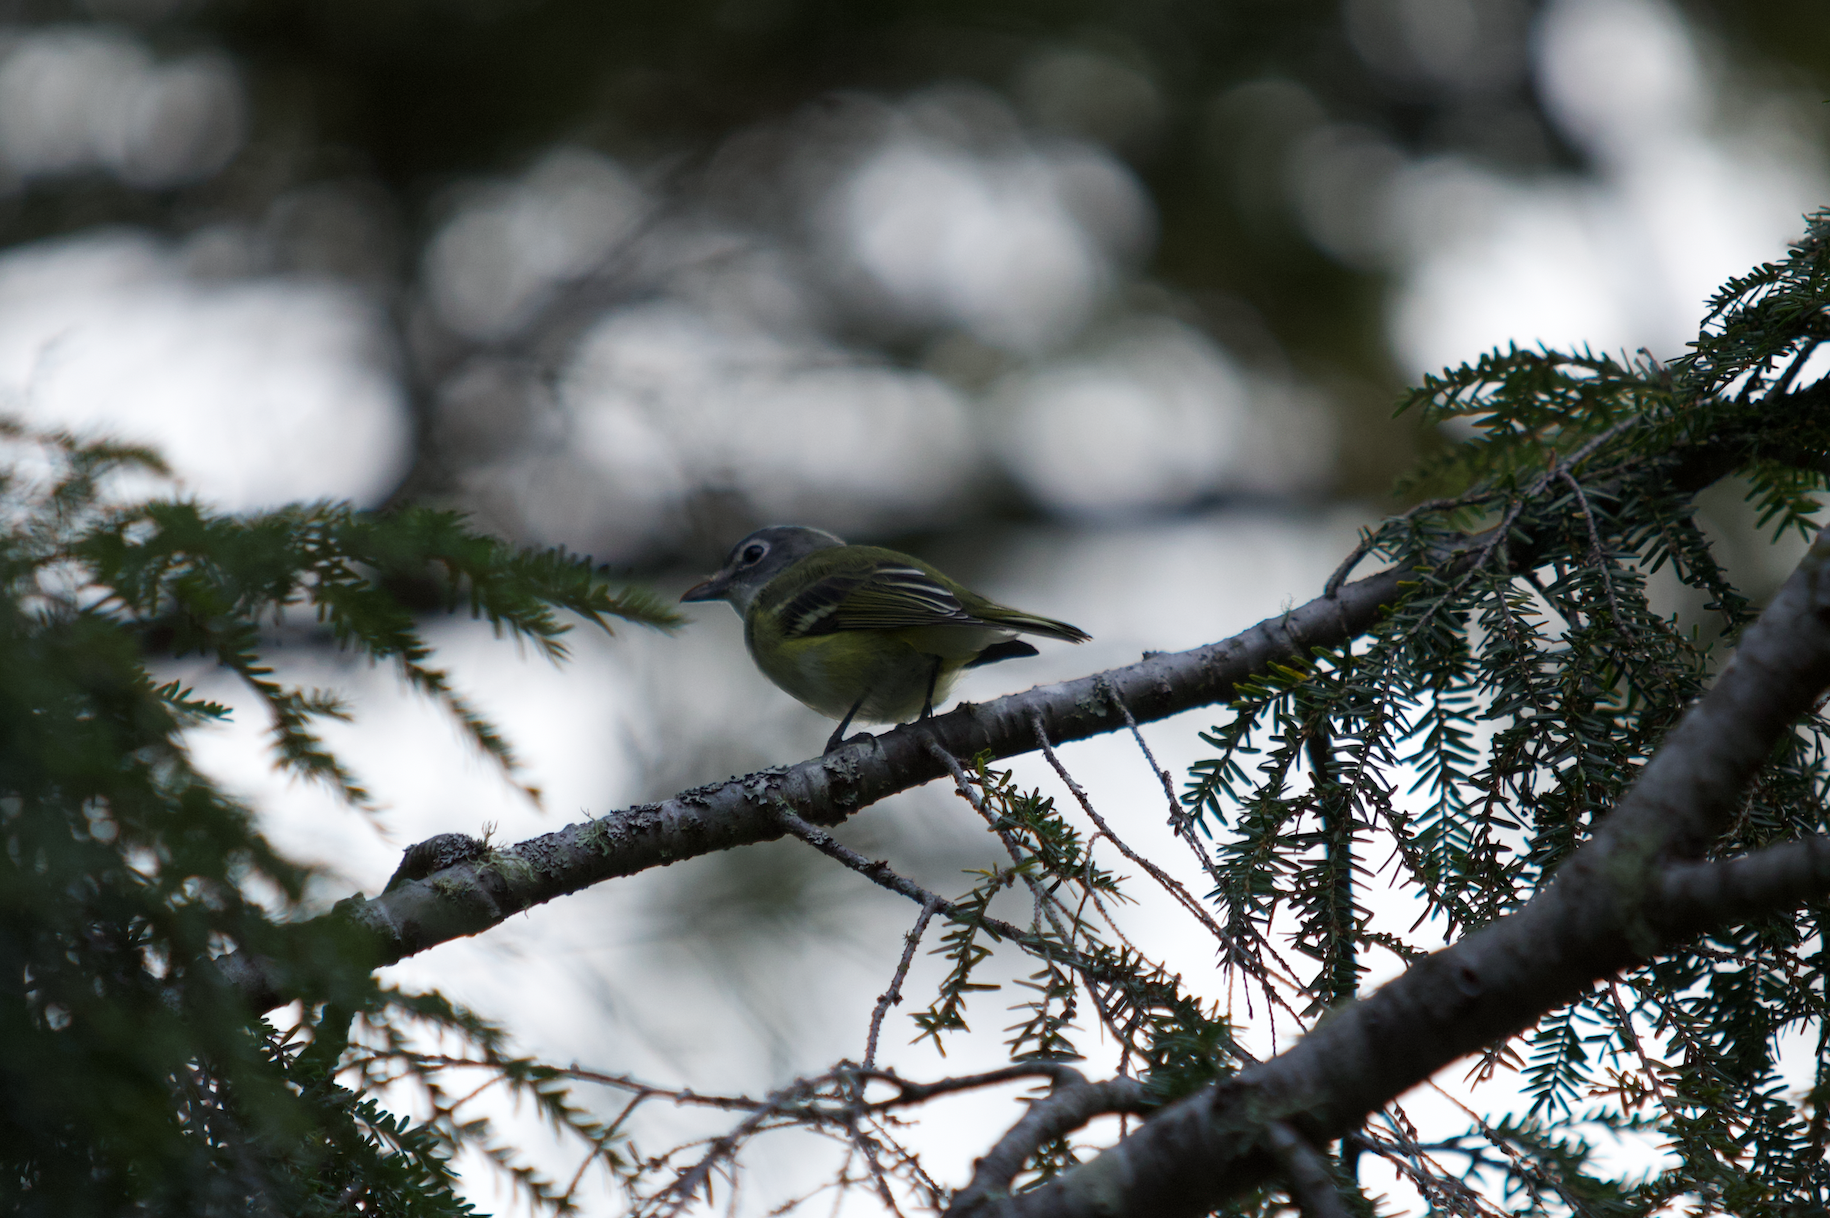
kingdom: Animalia
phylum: Chordata
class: Aves
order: Passeriformes
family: Vireonidae
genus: Vireo
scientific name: Vireo solitarius
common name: Blue-headed vireo
